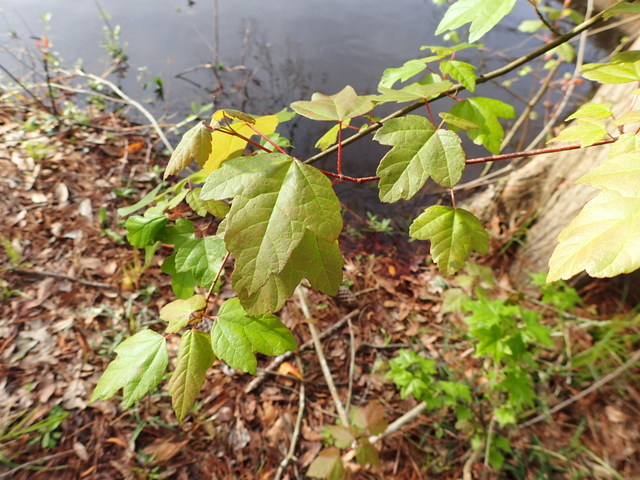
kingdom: Plantae
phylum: Tracheophyta
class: Magnoliopsida
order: Sapindales
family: Sapindaceae
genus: Acer
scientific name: Acer rubrum
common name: Red maple
